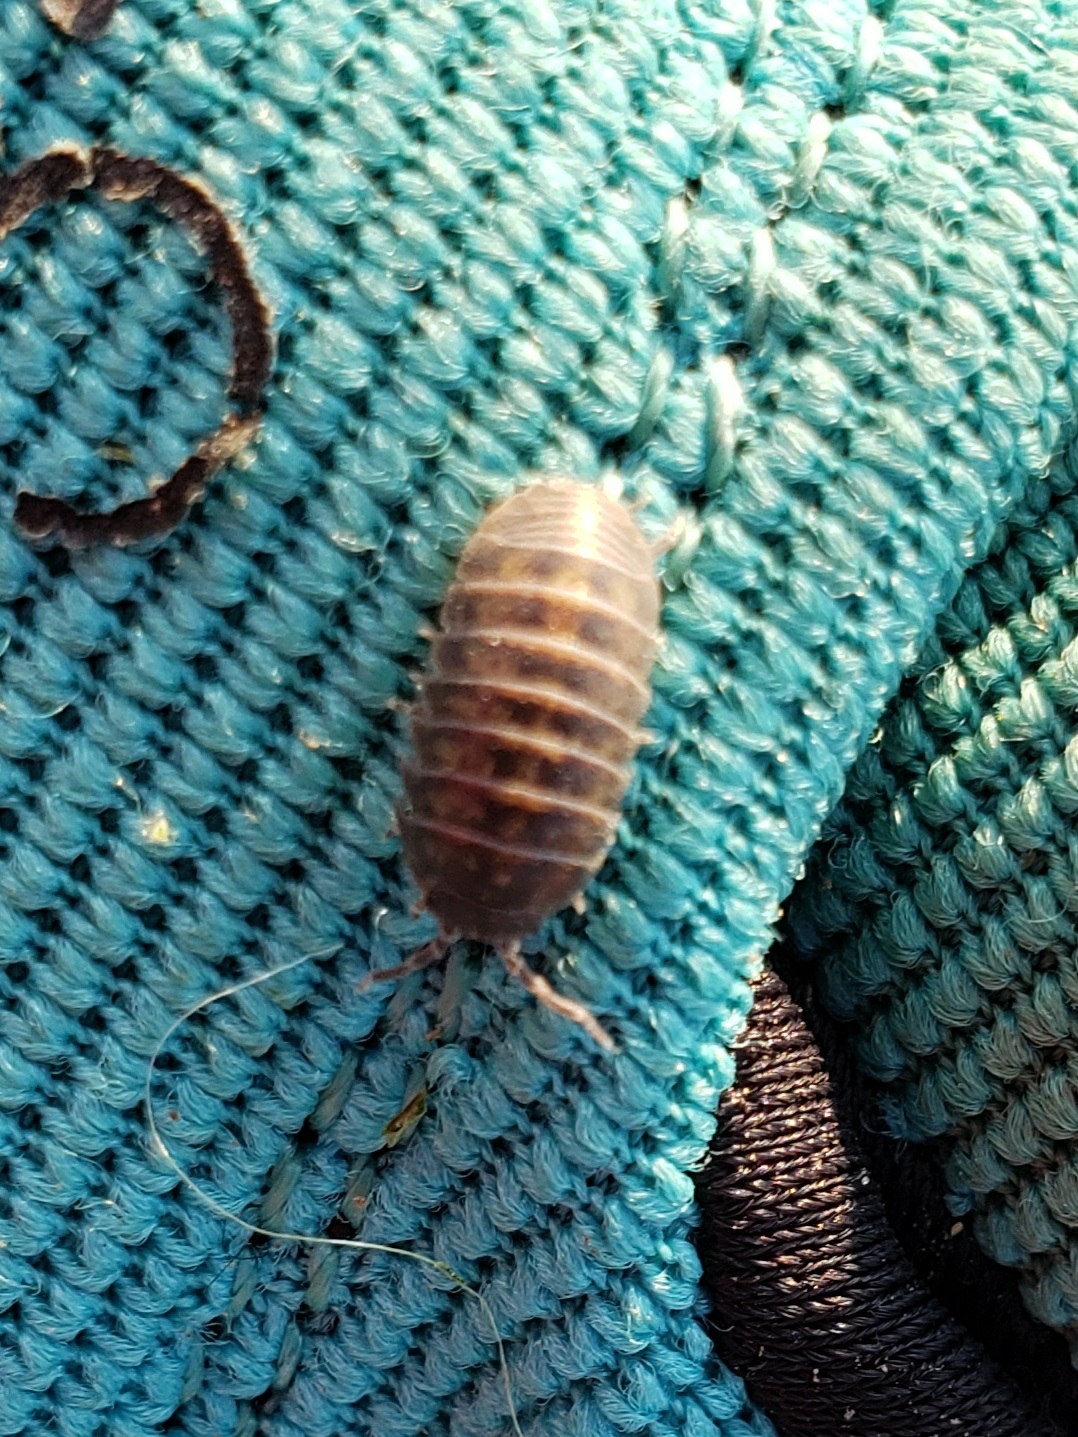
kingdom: Animalia
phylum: Arthropoda
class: Malacostraca
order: Isopoda
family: Armadillidiidae
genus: Armadillidium
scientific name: Armadillidium vulgare
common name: Common pill woodlouse
